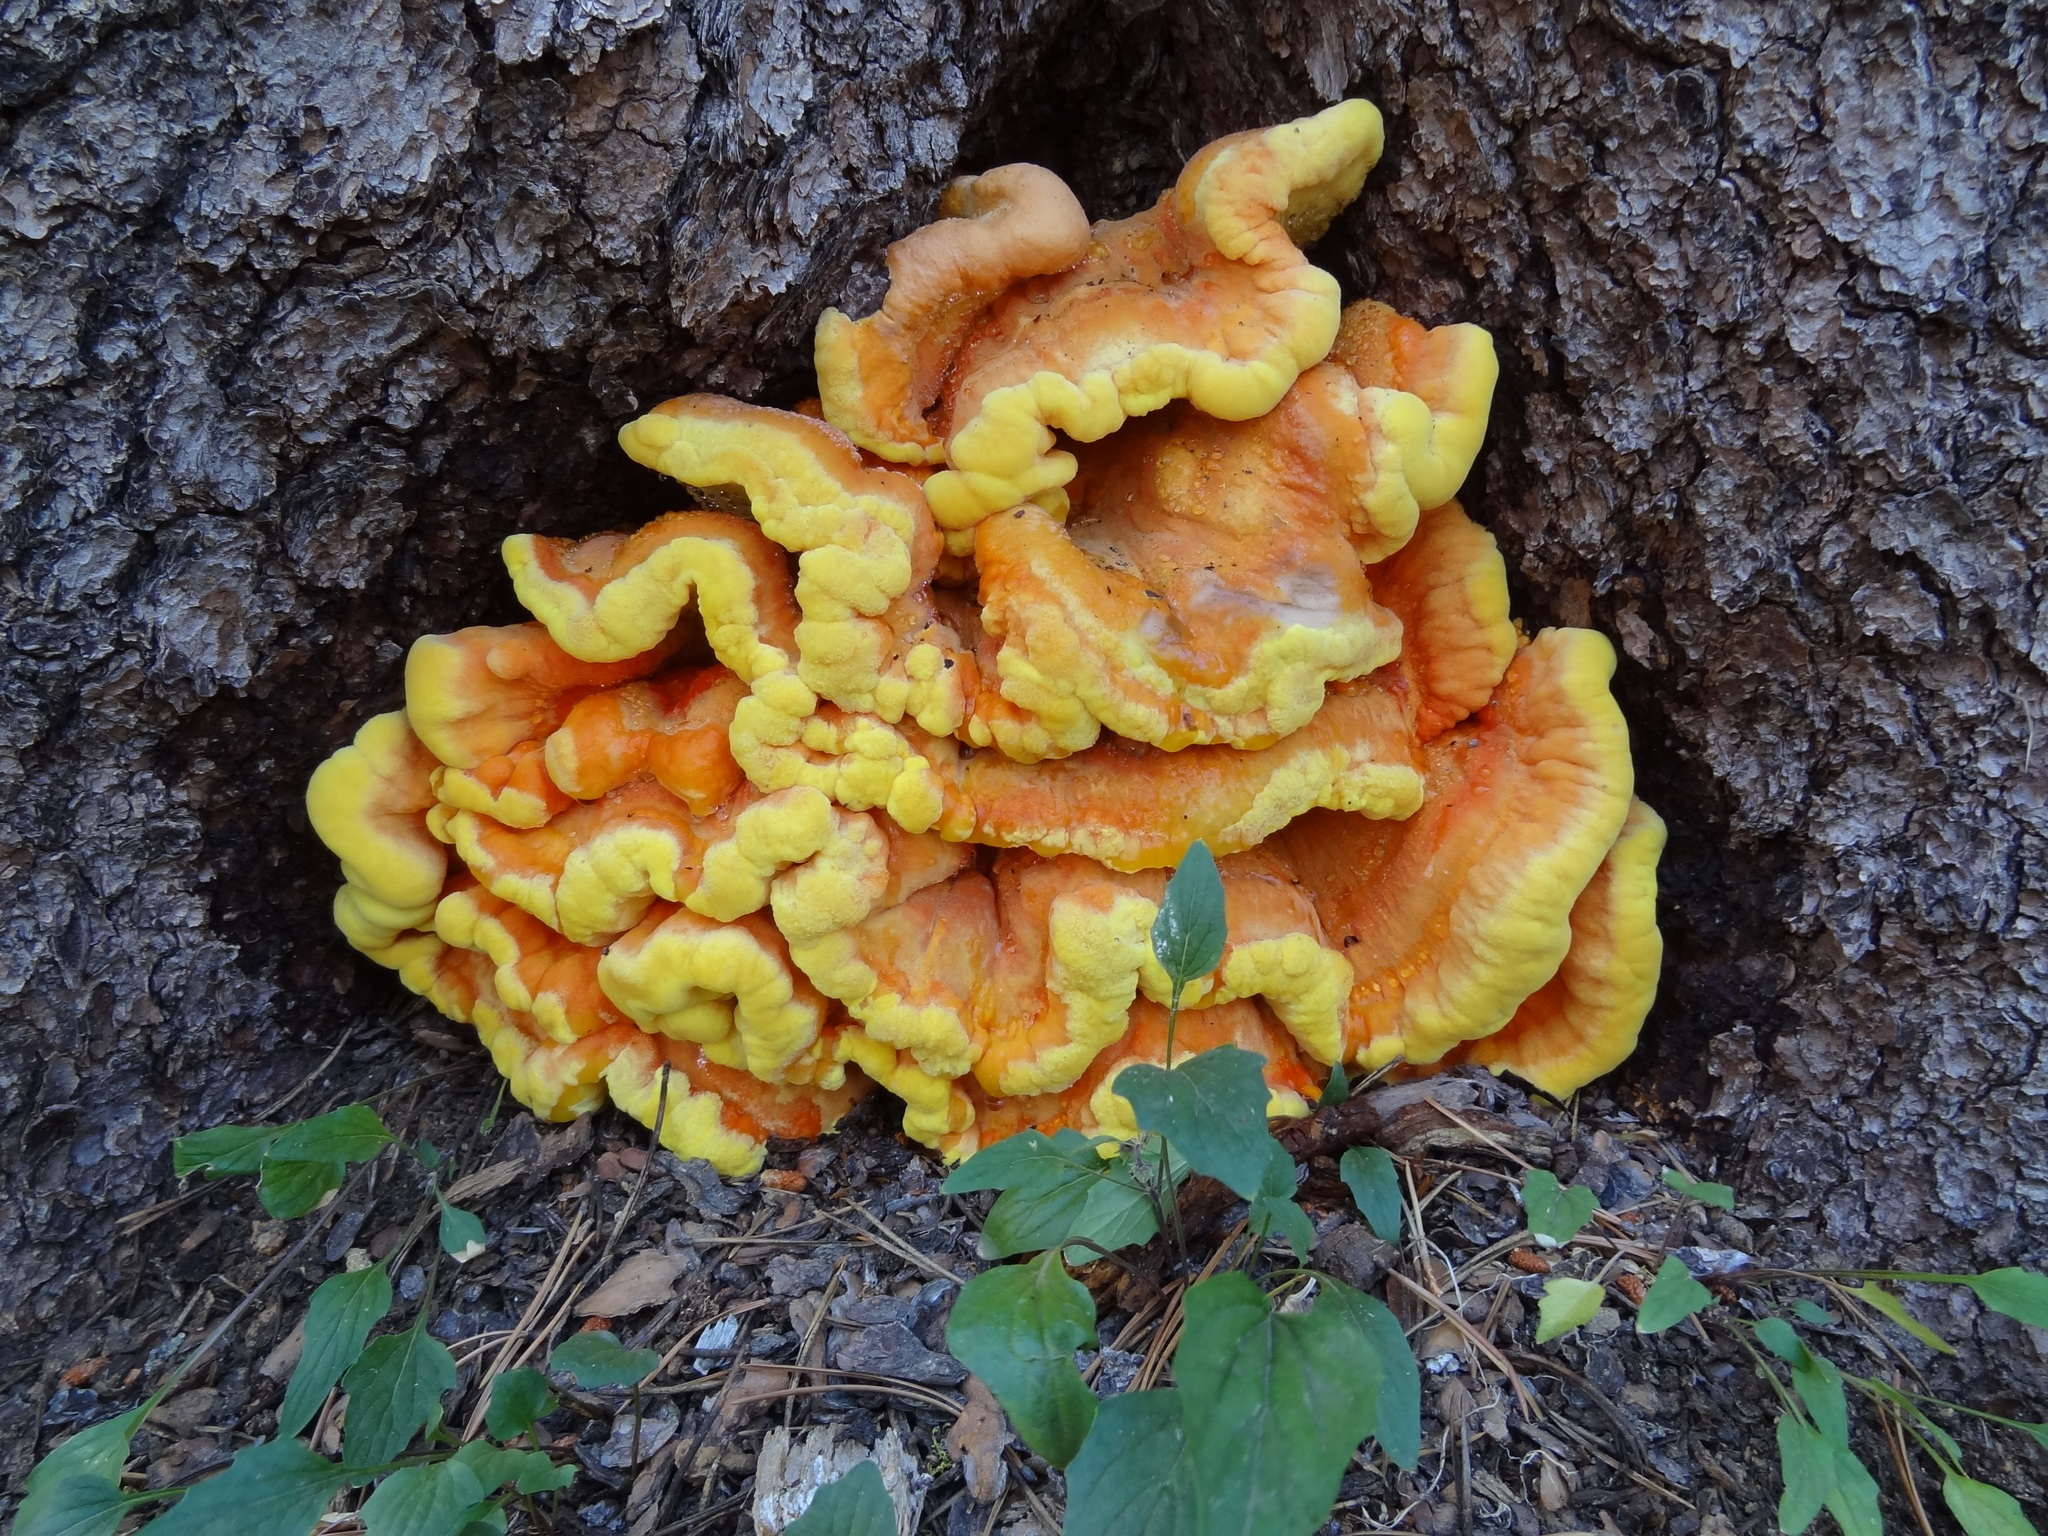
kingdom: Fungi
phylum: Basidiomycota
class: Agaricomycetes
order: Polyporales
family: Laetiporaceae
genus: Laetiporus
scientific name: Laetiporus conifericola
